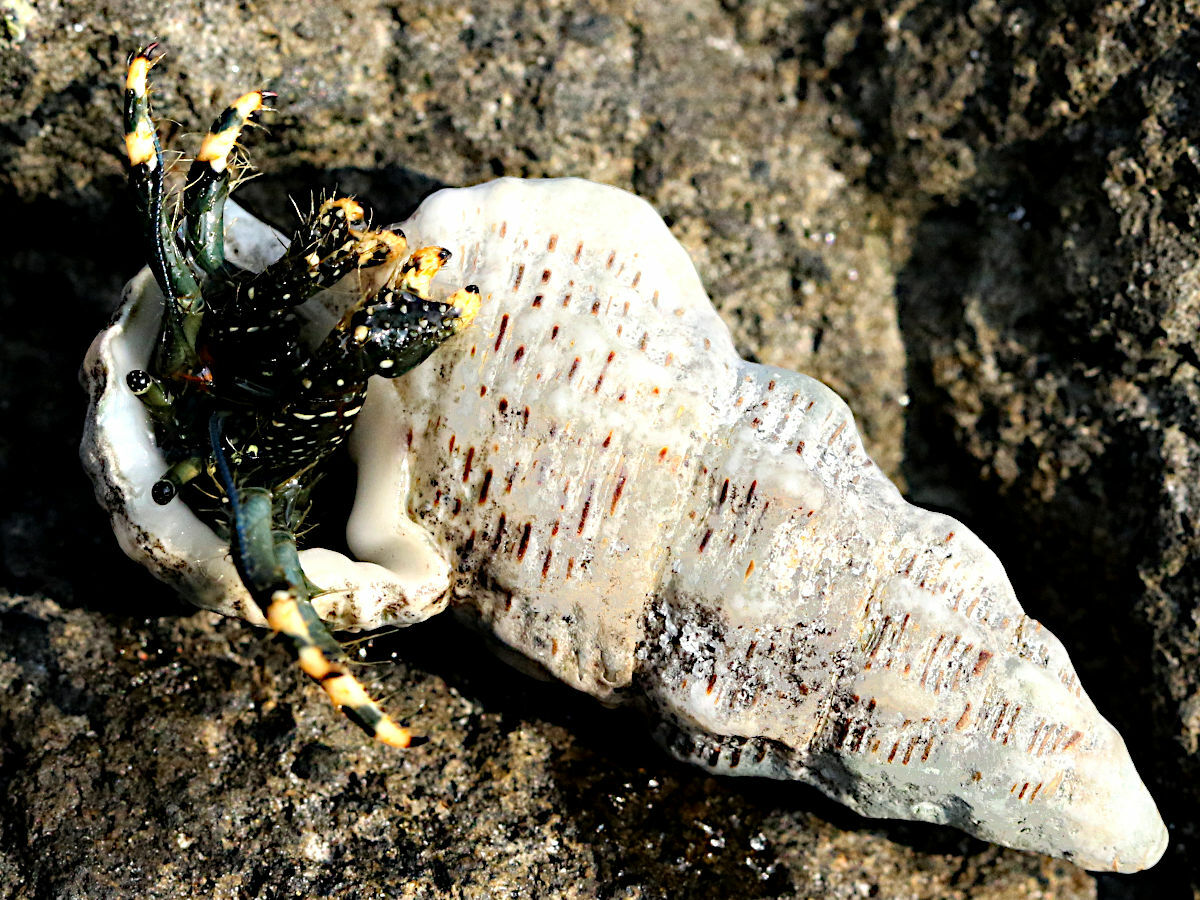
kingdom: Animalia
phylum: Arthropoda
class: Malacostraca
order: Decapoda
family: Diogenidae
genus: Clibanarius
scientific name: Clibanarius virescens
